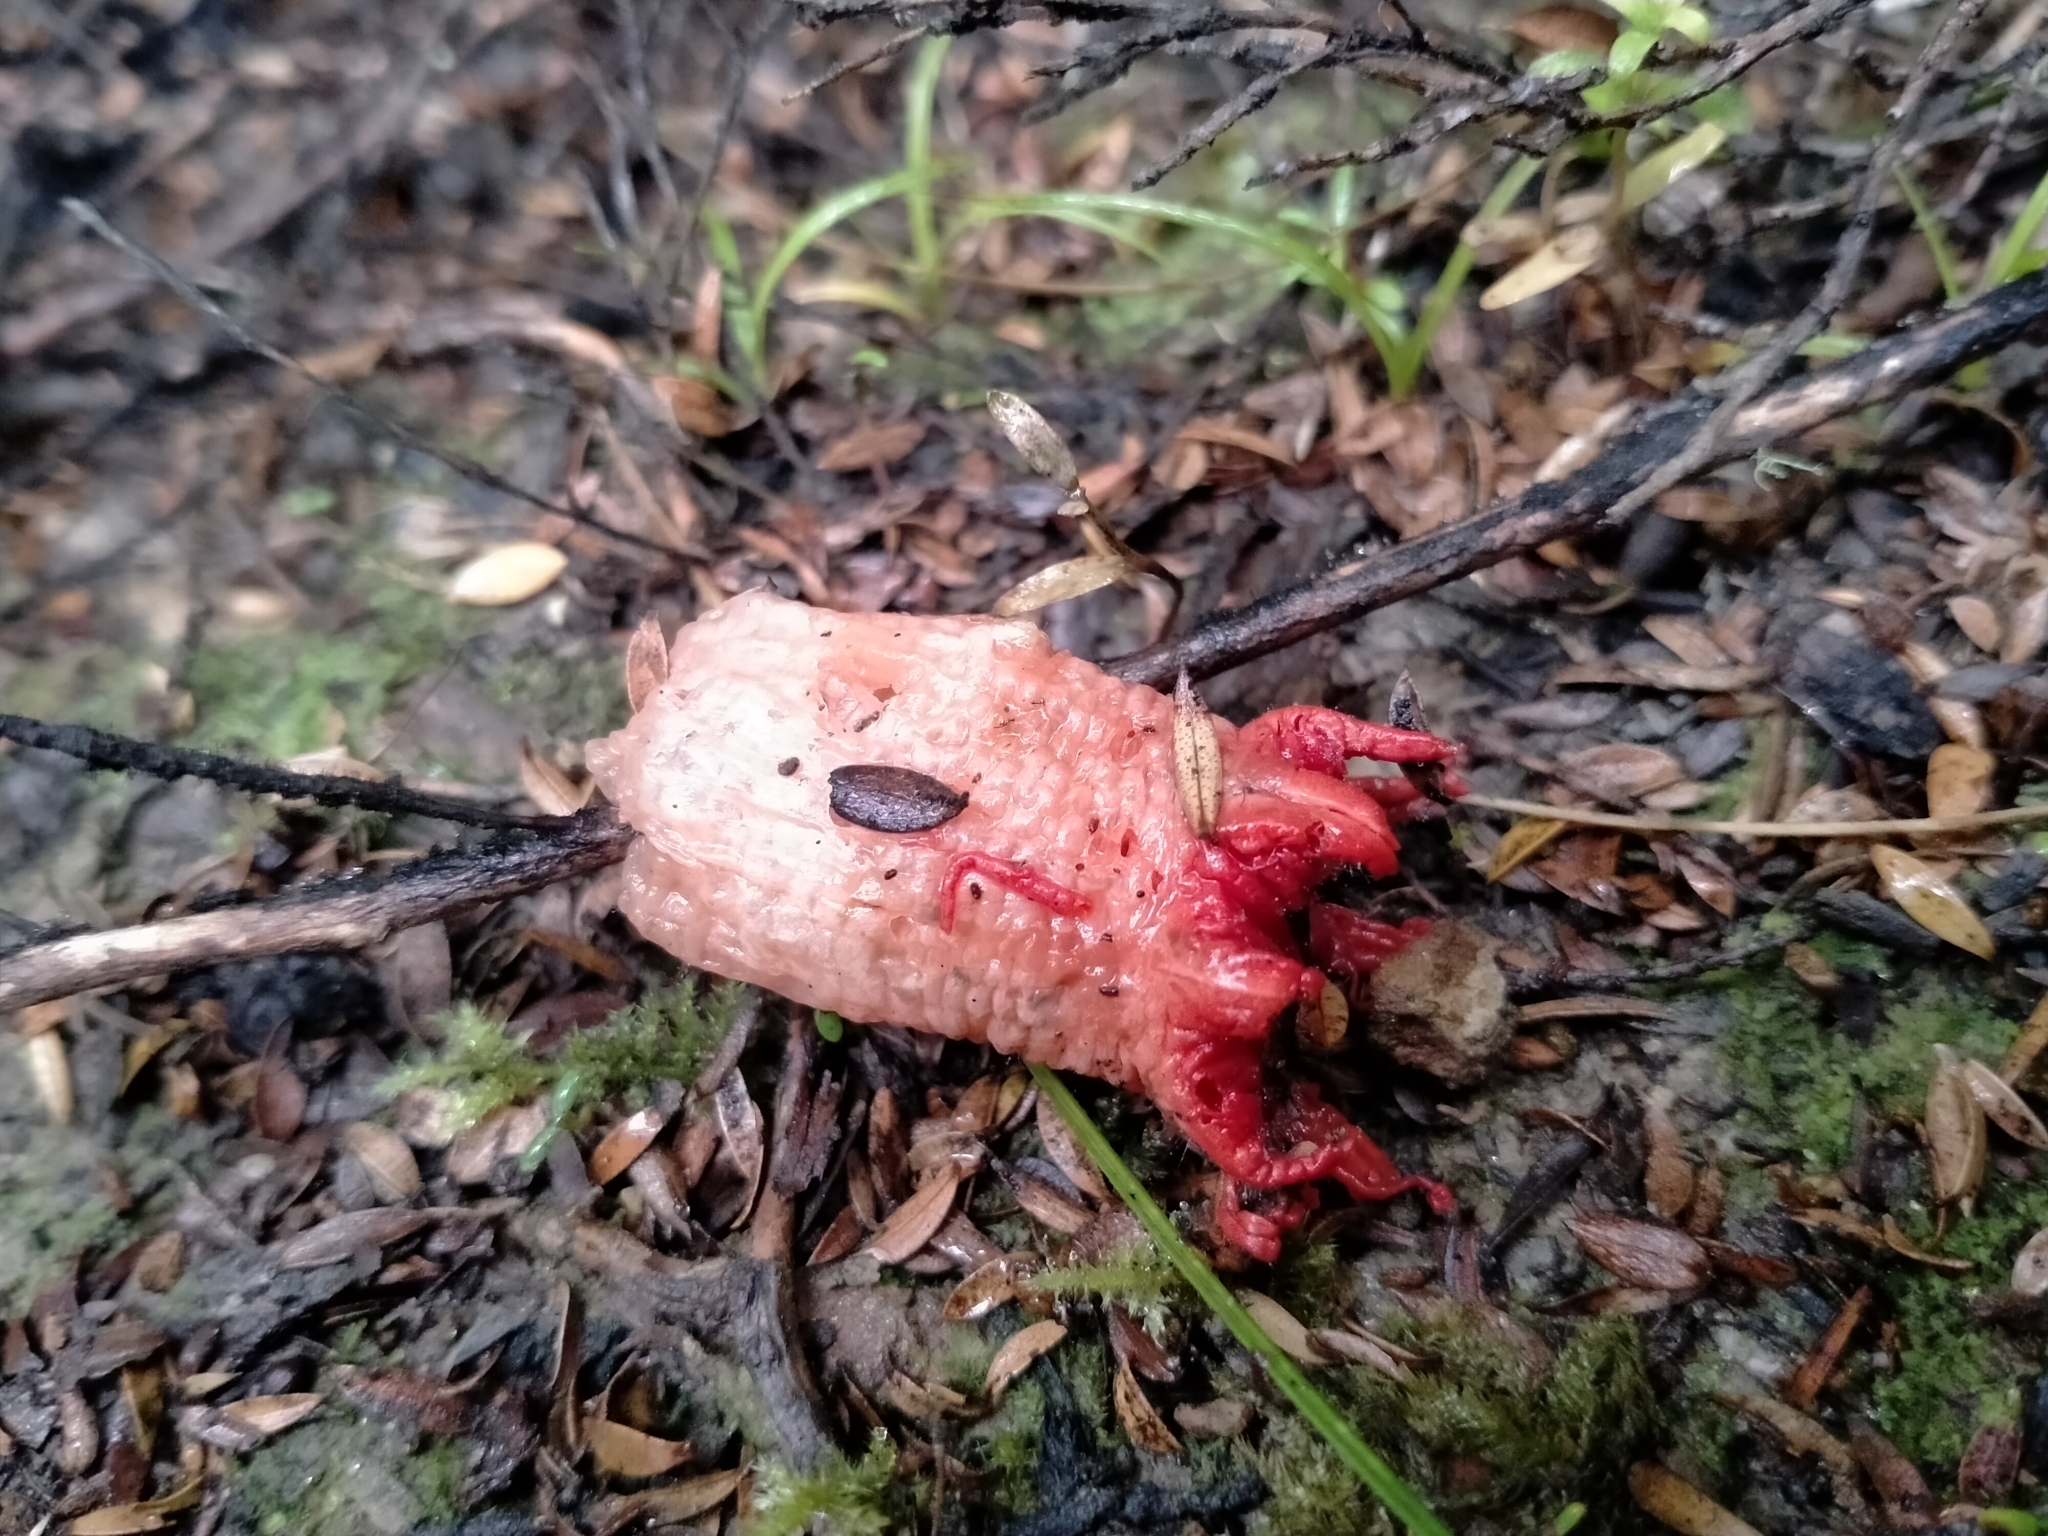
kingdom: Fungi
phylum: Basidiomycota
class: Agaricomycetes
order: Phallales
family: Phallaceae
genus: Aseroe
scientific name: Aseroe rubra
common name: Starfish fungus
